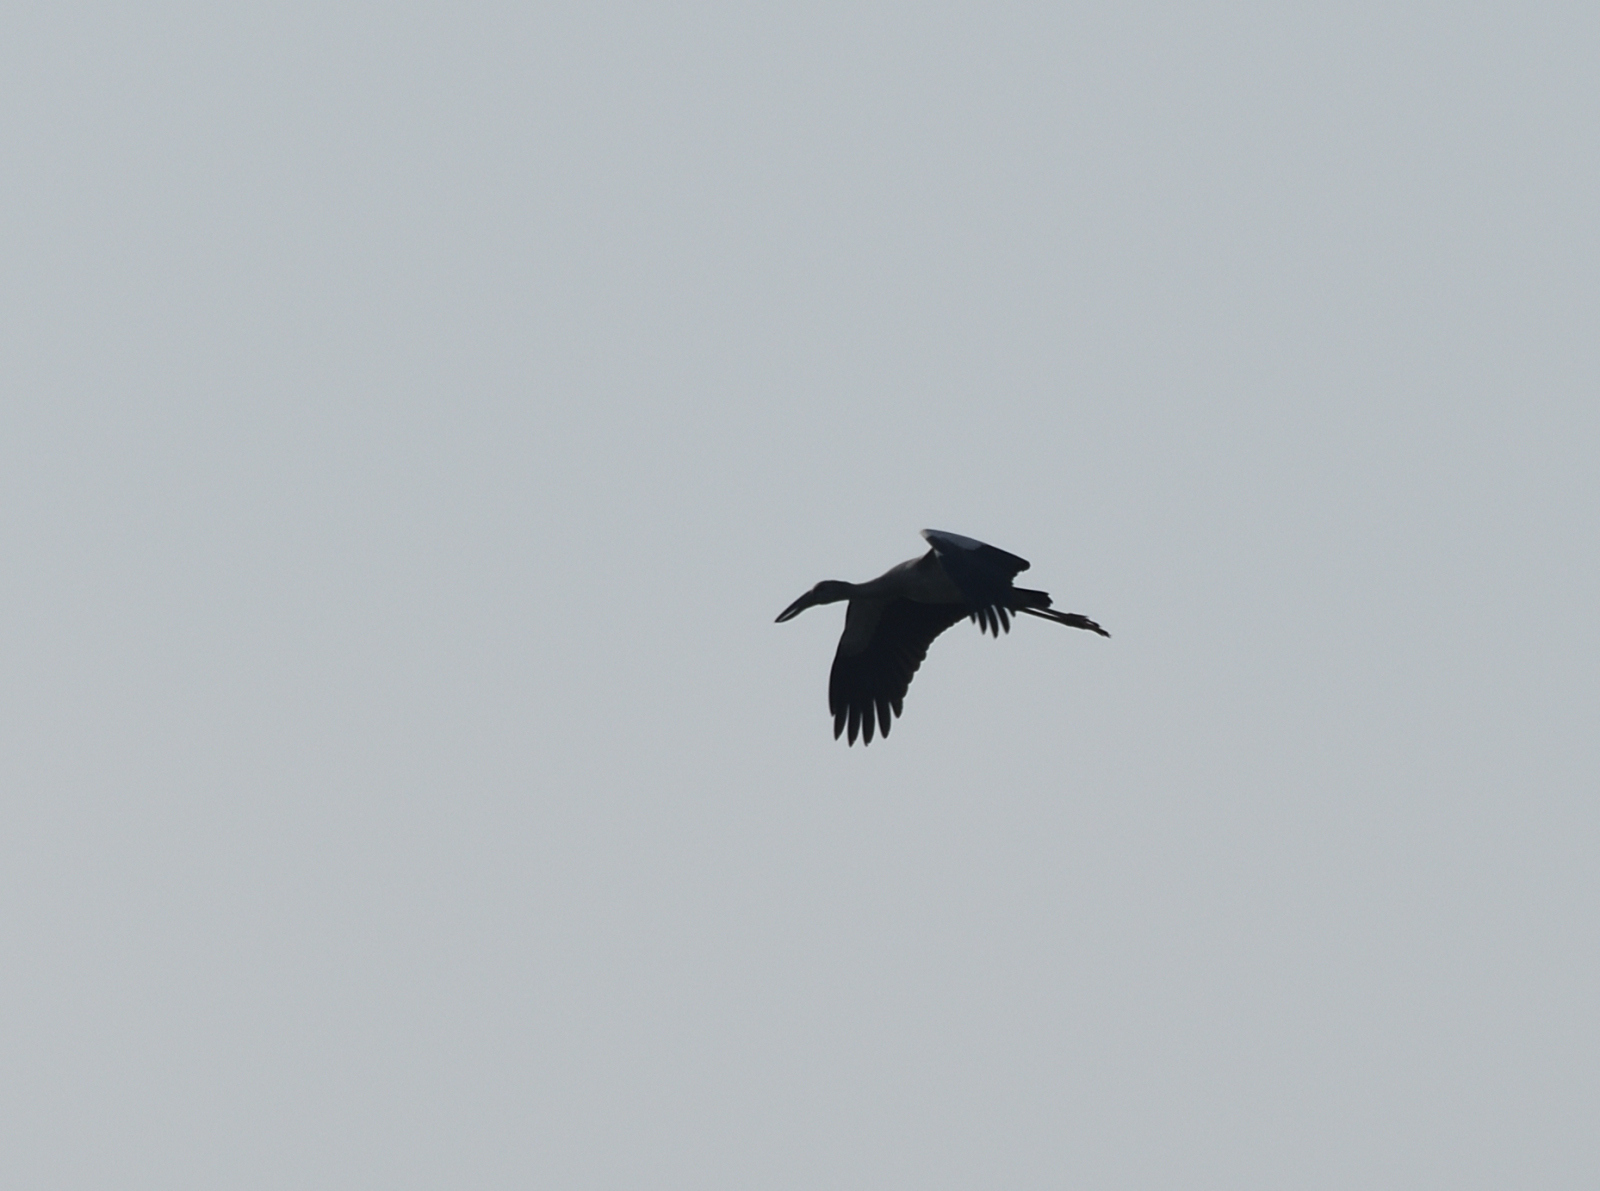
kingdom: Animalia
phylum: Chordata
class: Aves
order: Ciconiiformes
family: Ciconiidae
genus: Anastomus
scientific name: Anastomus oscitans
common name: Asian openbill
